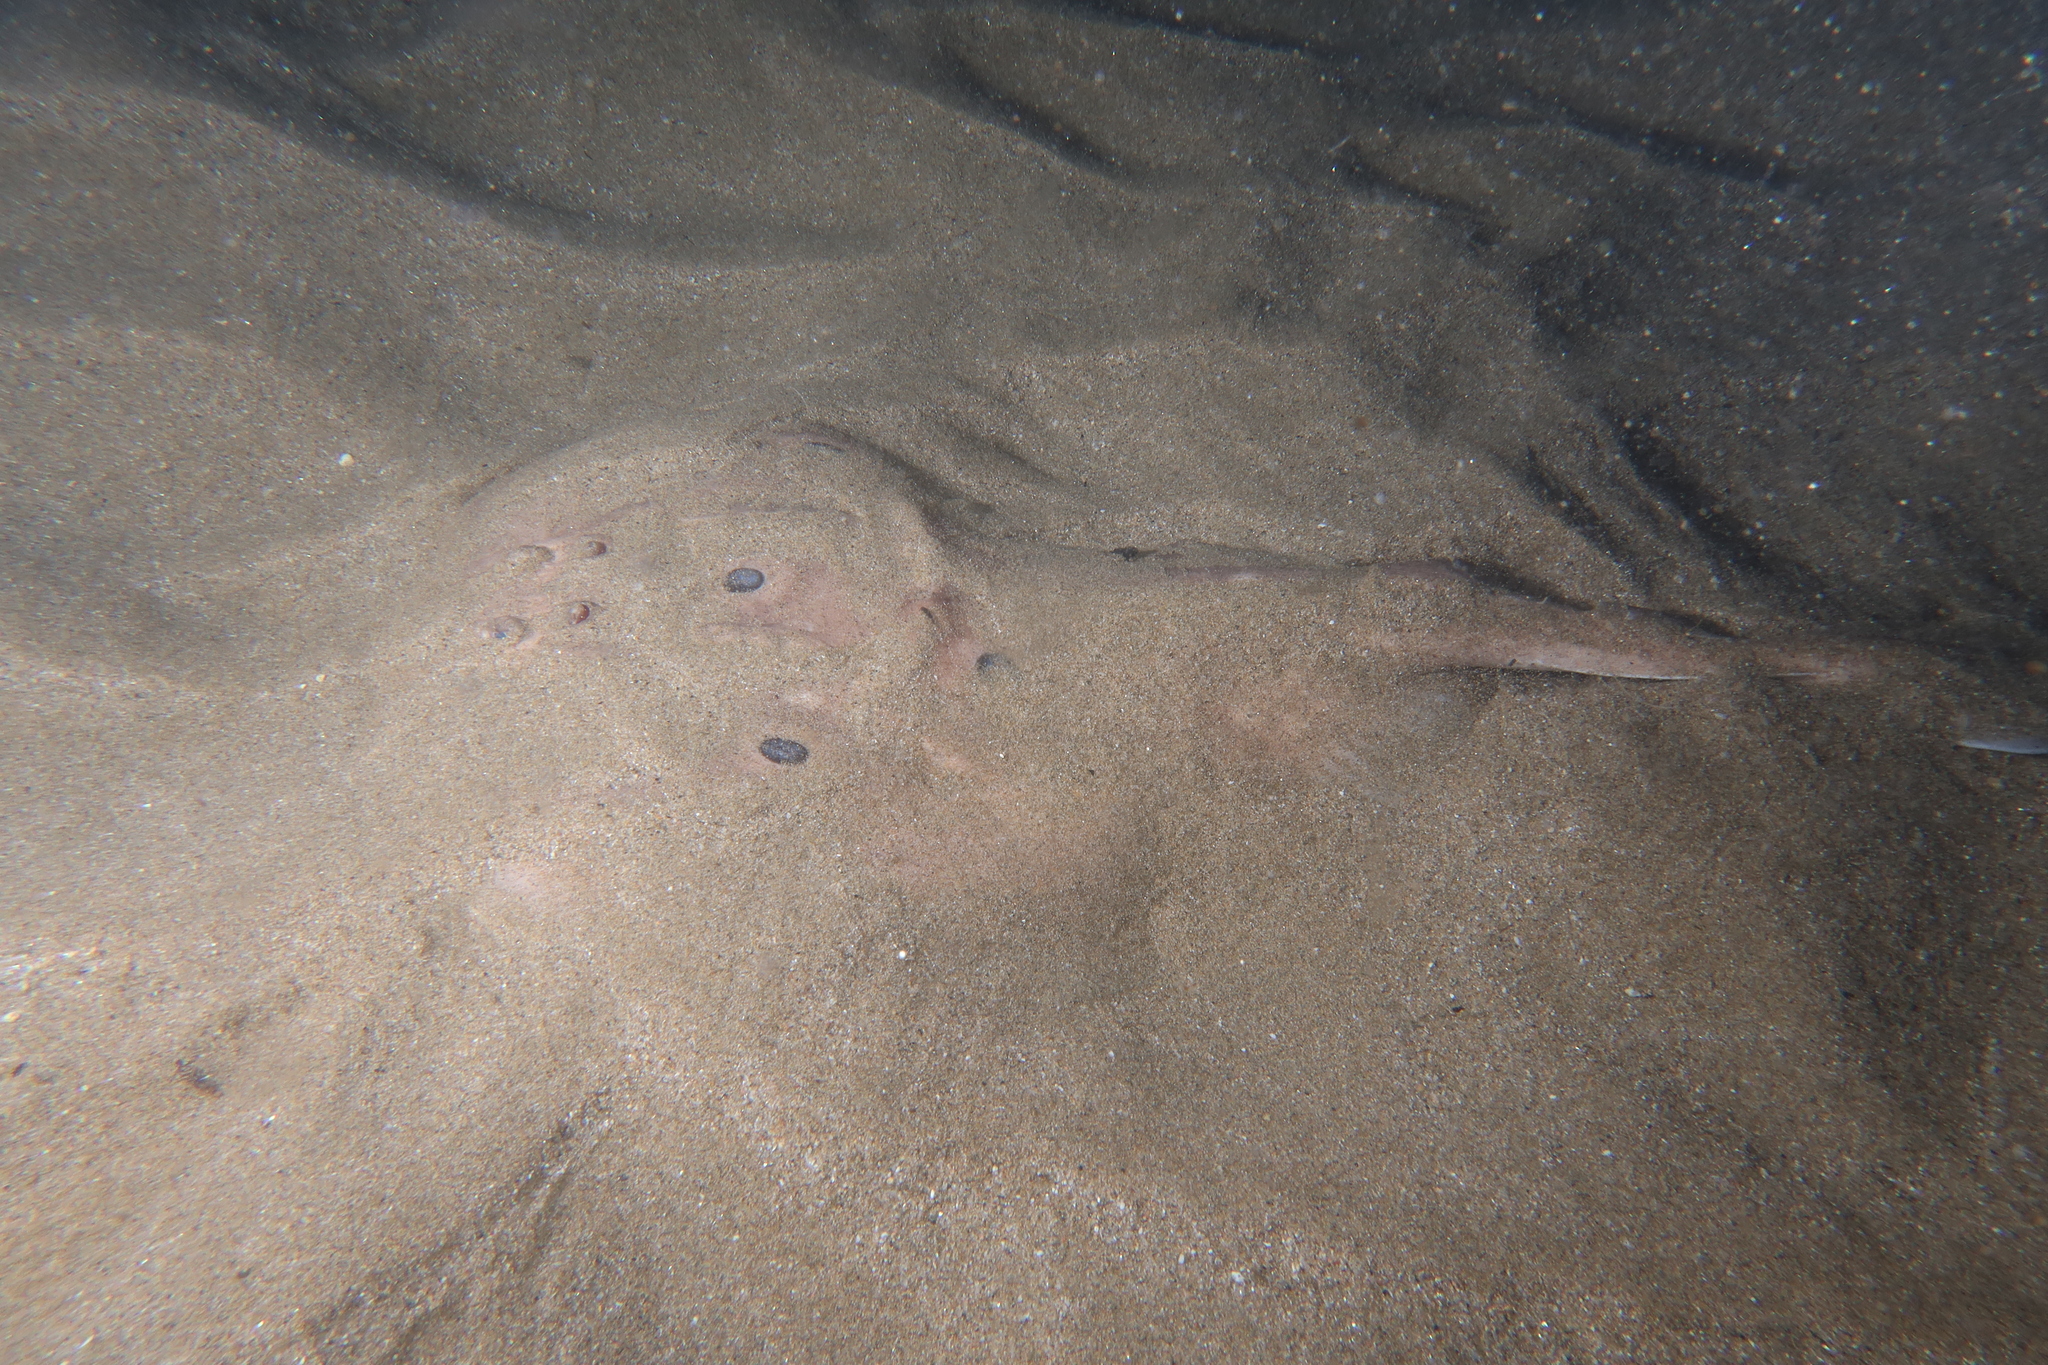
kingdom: Animalia
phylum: Chordata
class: Elasmobranchii
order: Torpediniformes
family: Torpedinidae
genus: Torpedo
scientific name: Torpedo torpedo
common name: Common torpedo
